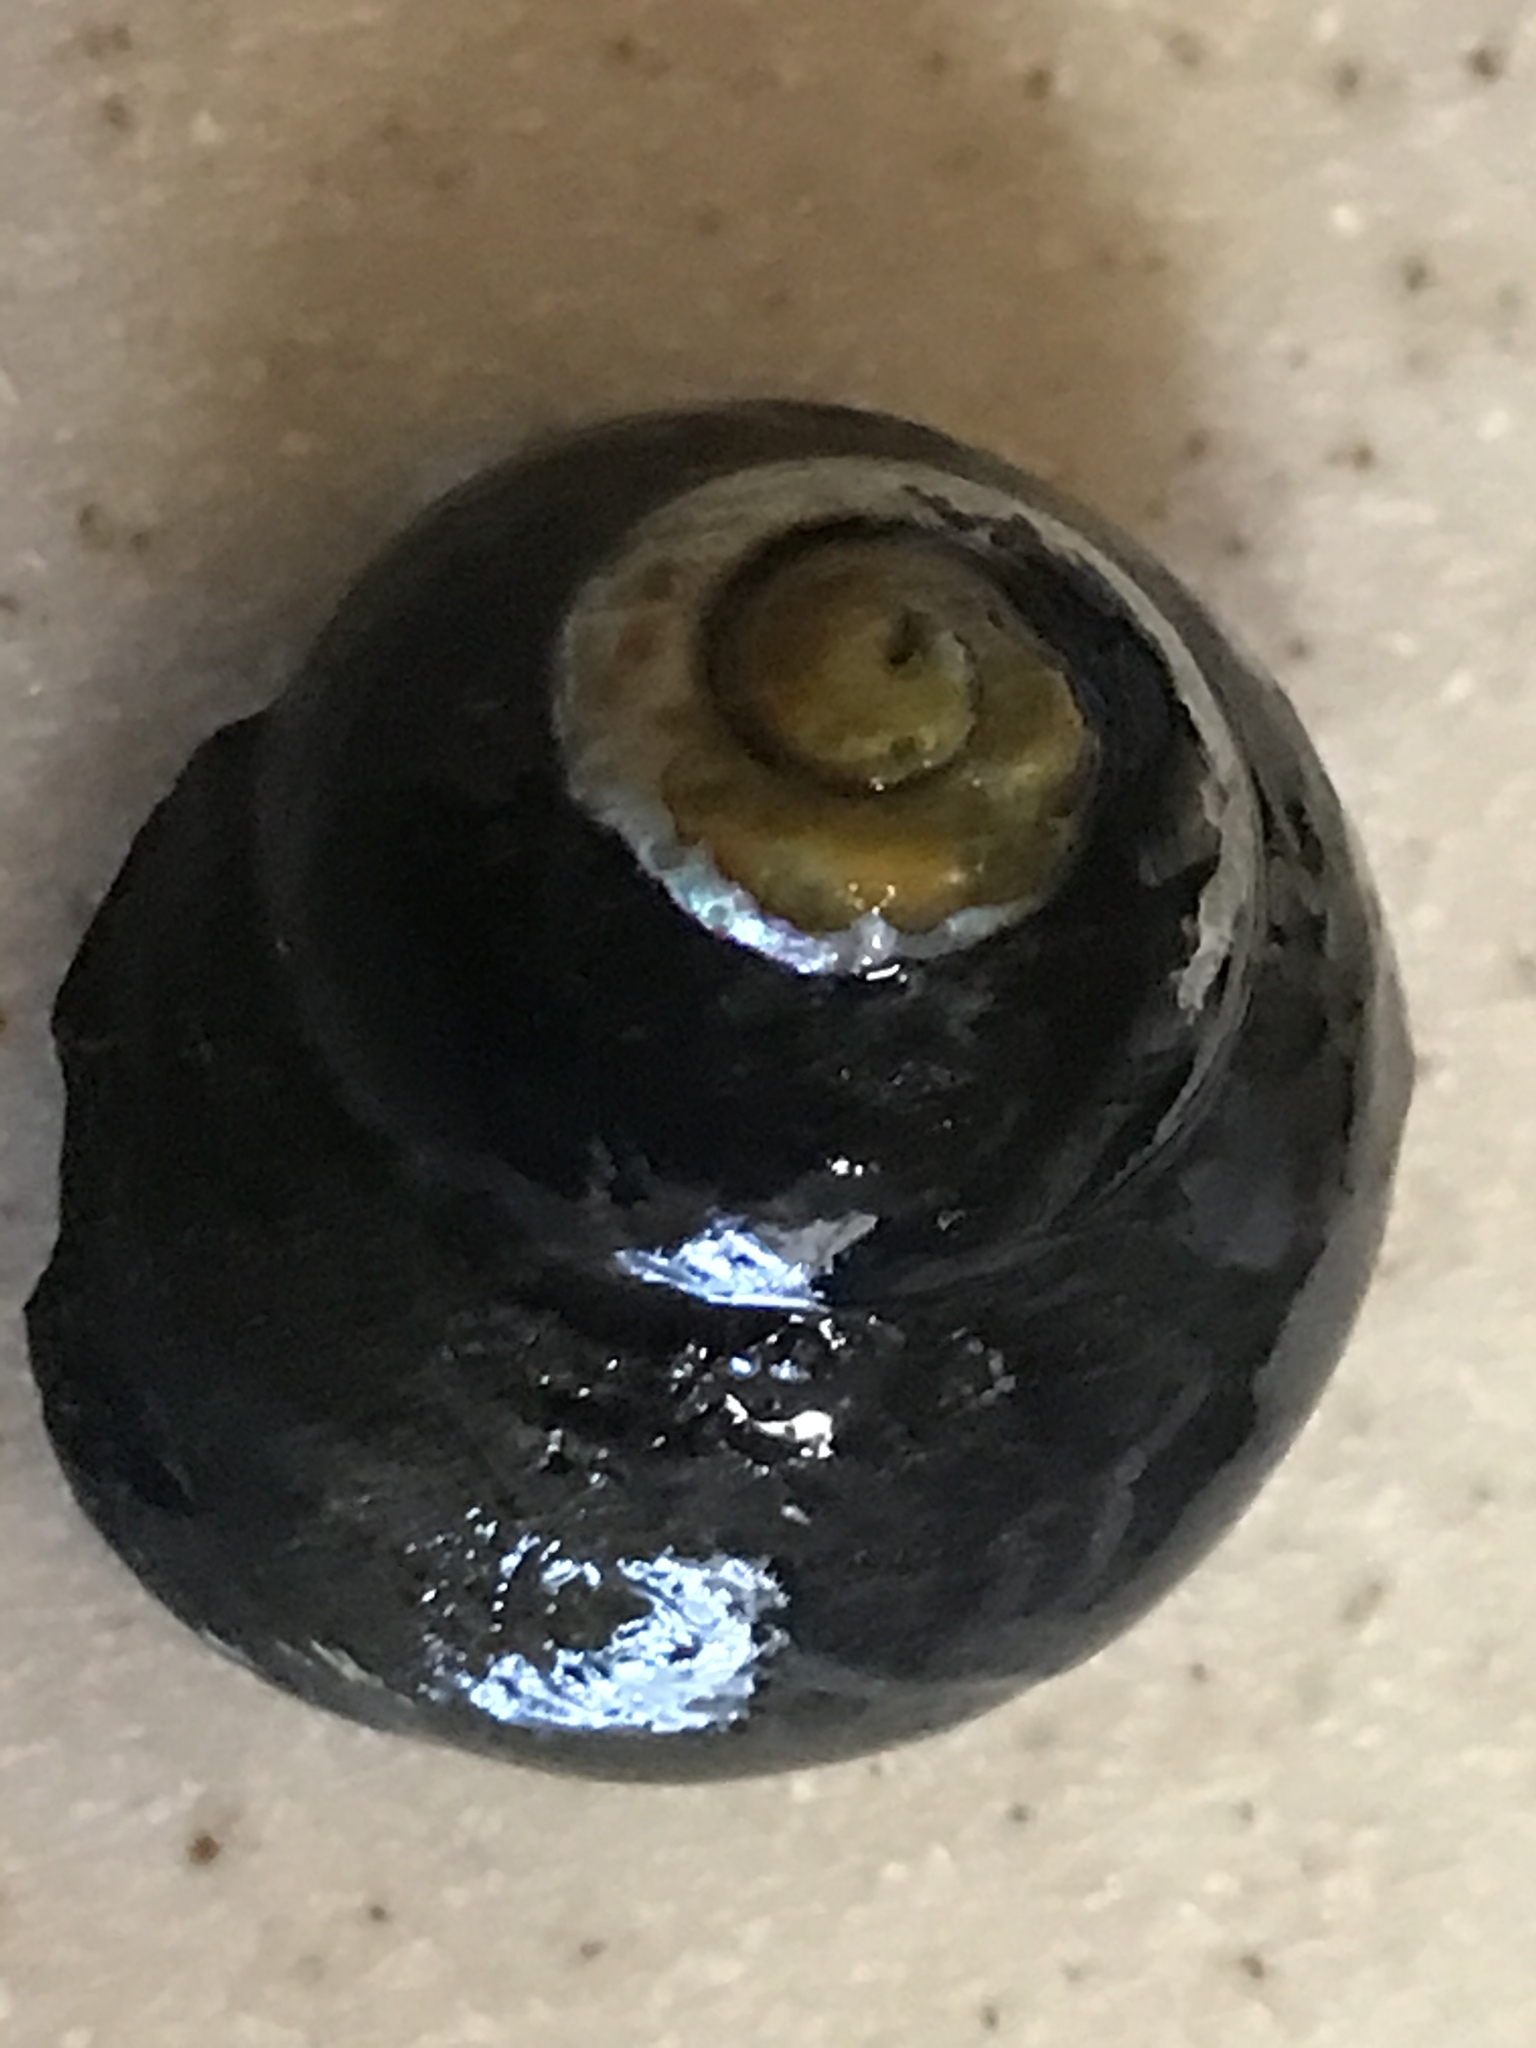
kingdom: Animalia
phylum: Mollusca
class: Gastropoda
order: Trochida
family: Tegulidae
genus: Tegula
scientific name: Tegula funebralis
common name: Black tegula
